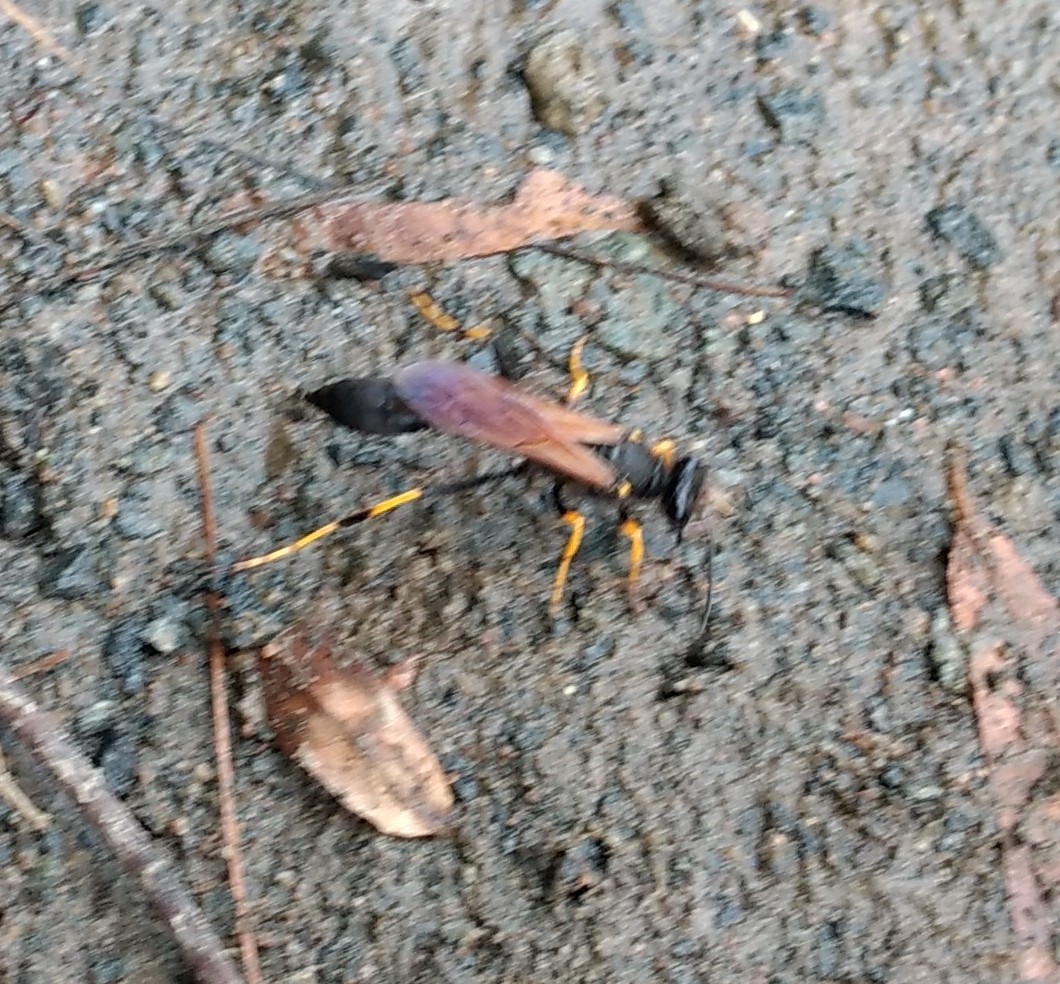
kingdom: Animalia
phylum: Arthropoda
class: Insecta
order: Hymenoptera
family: Sphecidae
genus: Sceliphron
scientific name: Sceliphron caementarium
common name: Mud dauber
